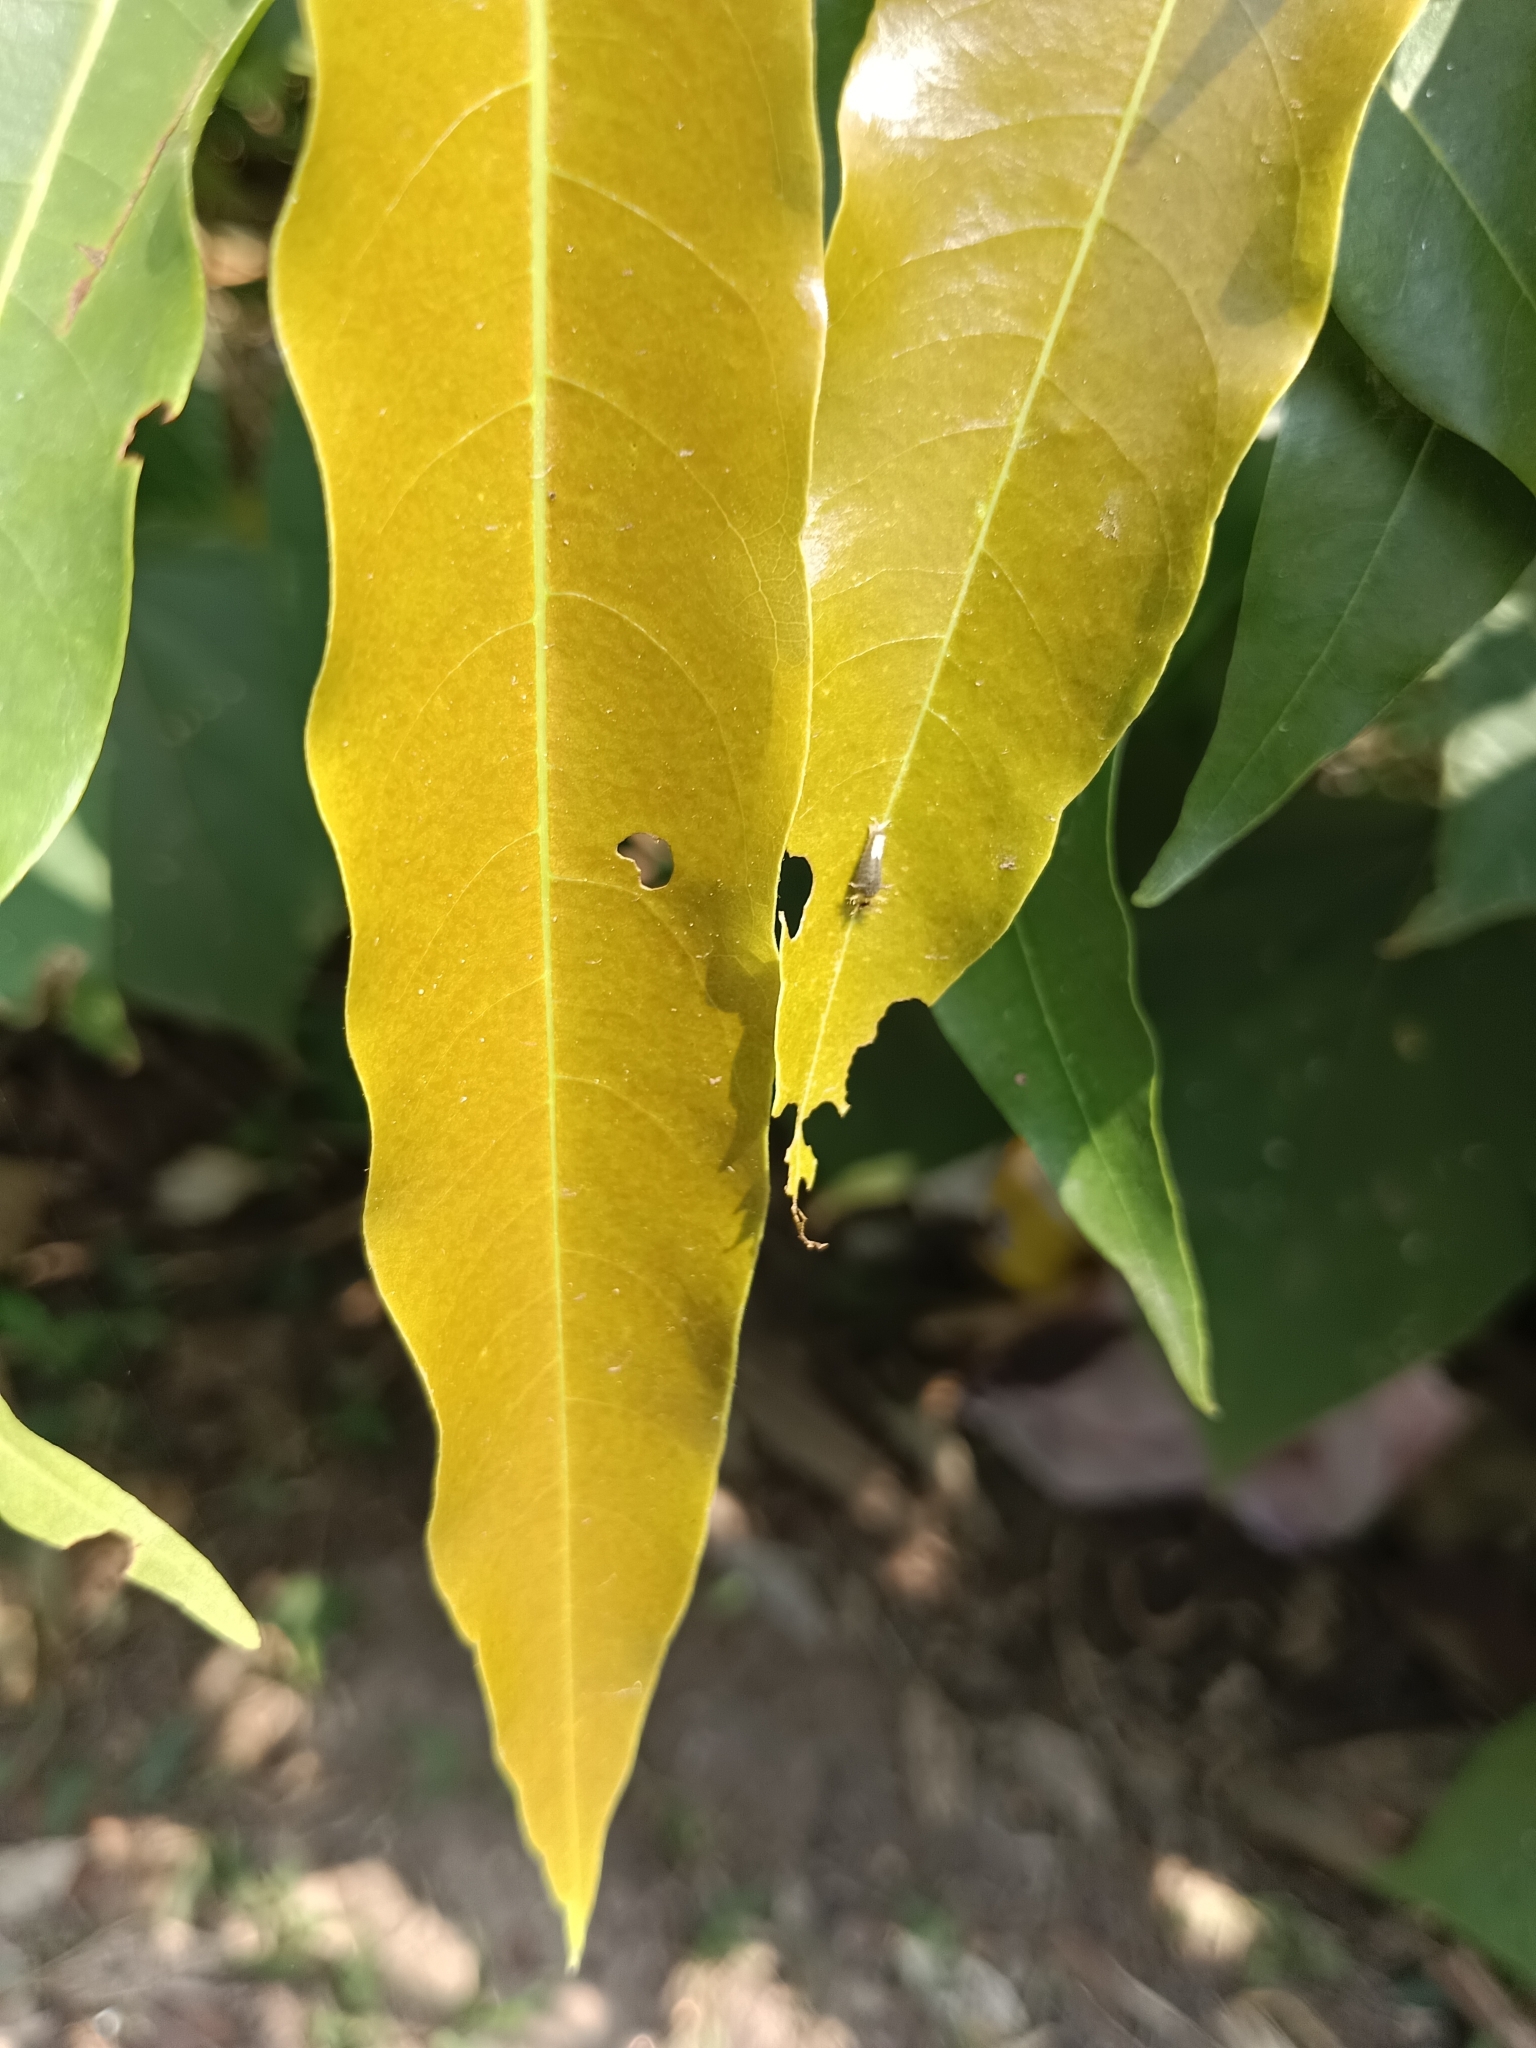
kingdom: Animalia
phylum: Arthropoda
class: Insecta
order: Lepidoptera
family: Papilionidae
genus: Graphium
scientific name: Graphium agamemnon
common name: Tailed jay
